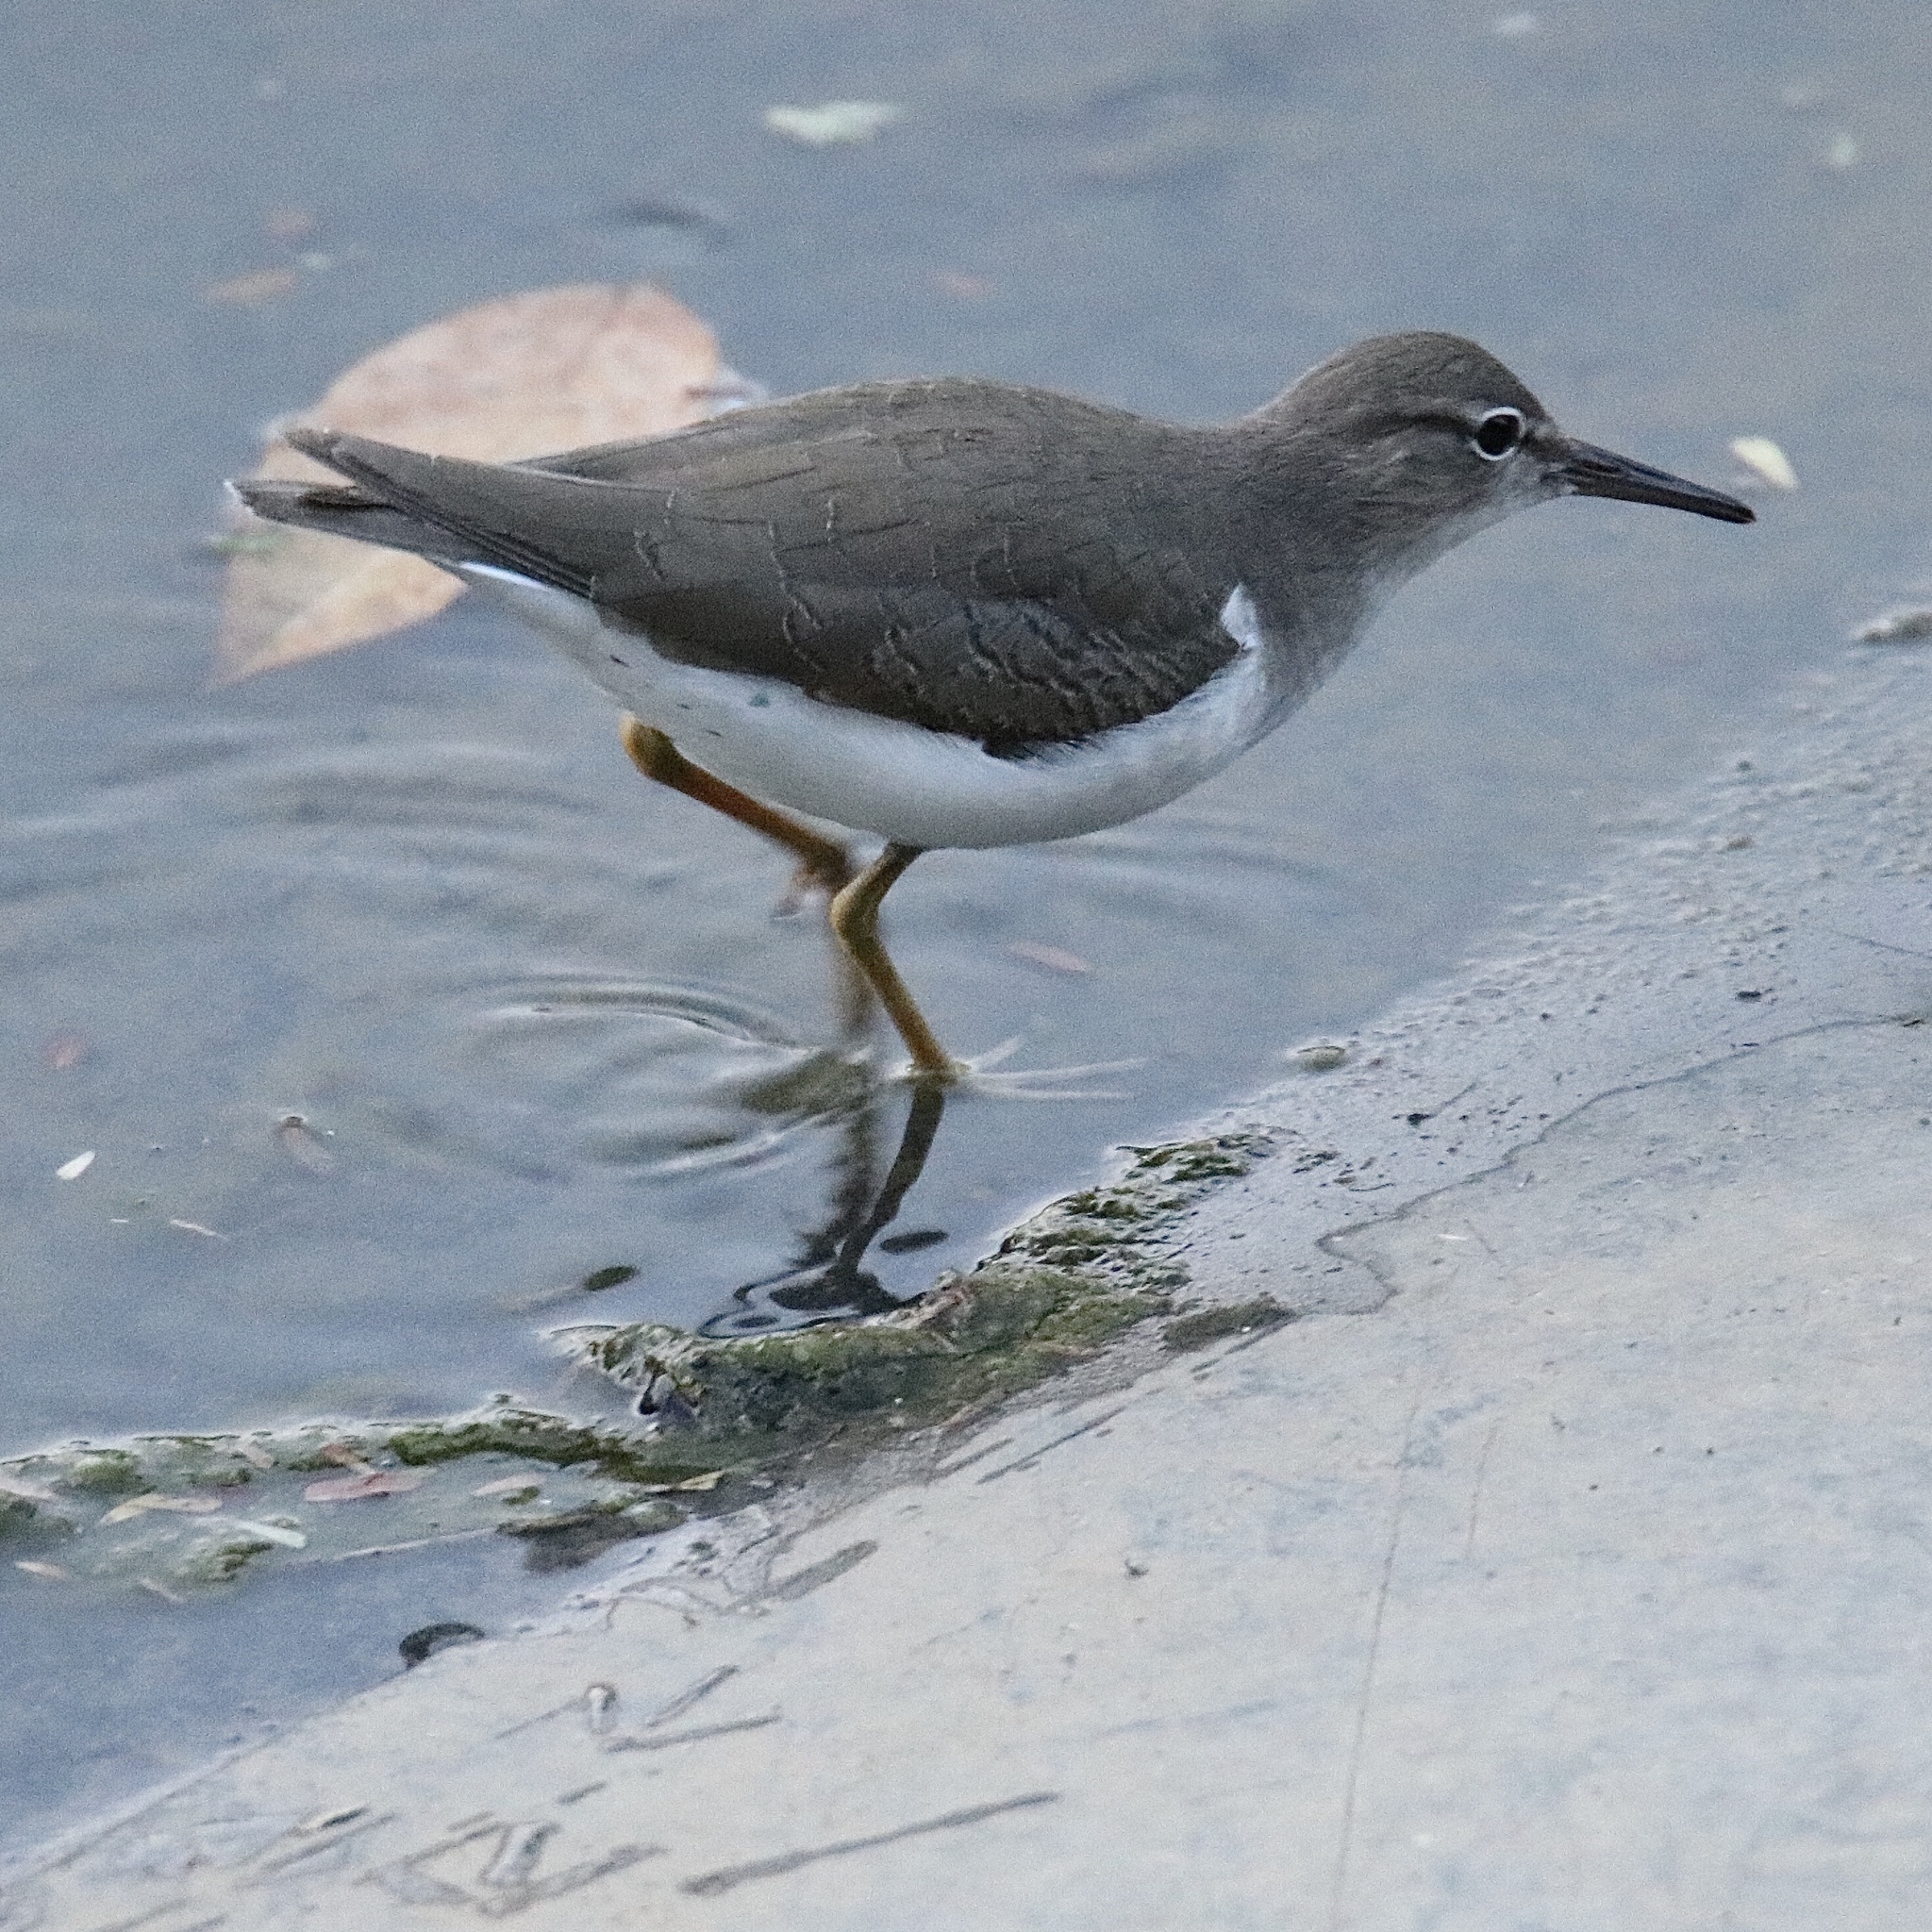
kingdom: Animalia
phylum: Chordata
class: Aves
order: Charadriiformes
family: Scolopacidae
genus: Actitis
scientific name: Actitis macularius
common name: Spotted sandpiper
